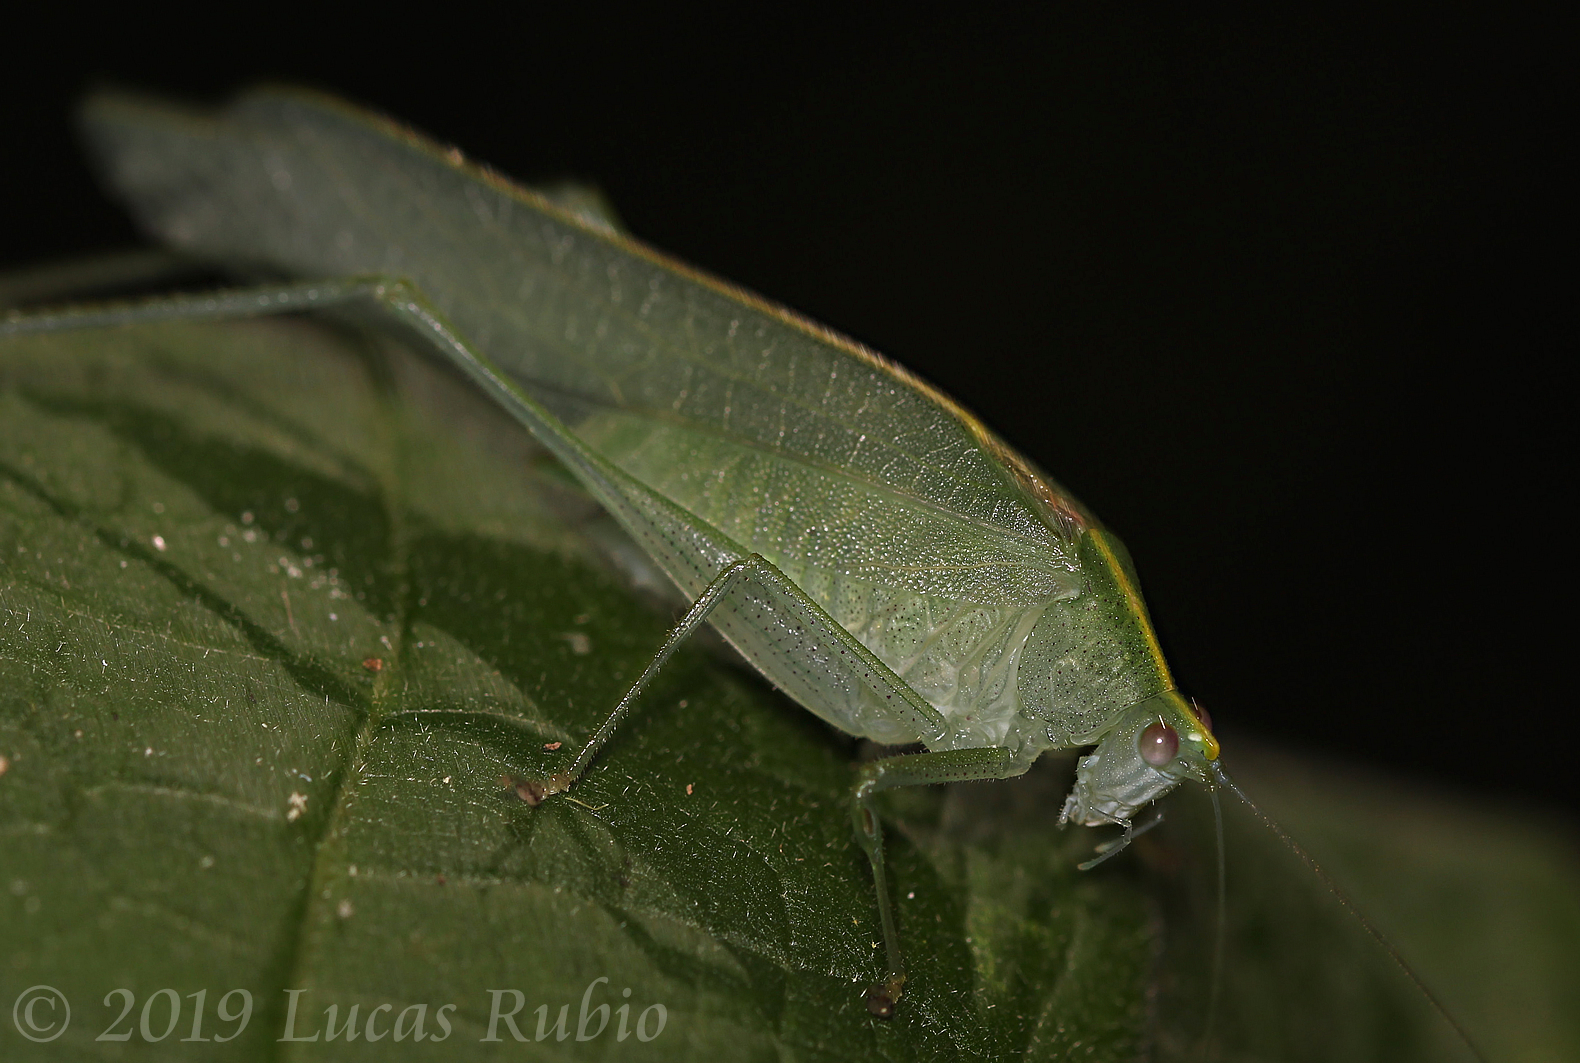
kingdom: Animalia
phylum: Arthropoda
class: Insecta
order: Orthoptera
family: Tettigoniidae
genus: Grammadera
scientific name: Grammadera clara
